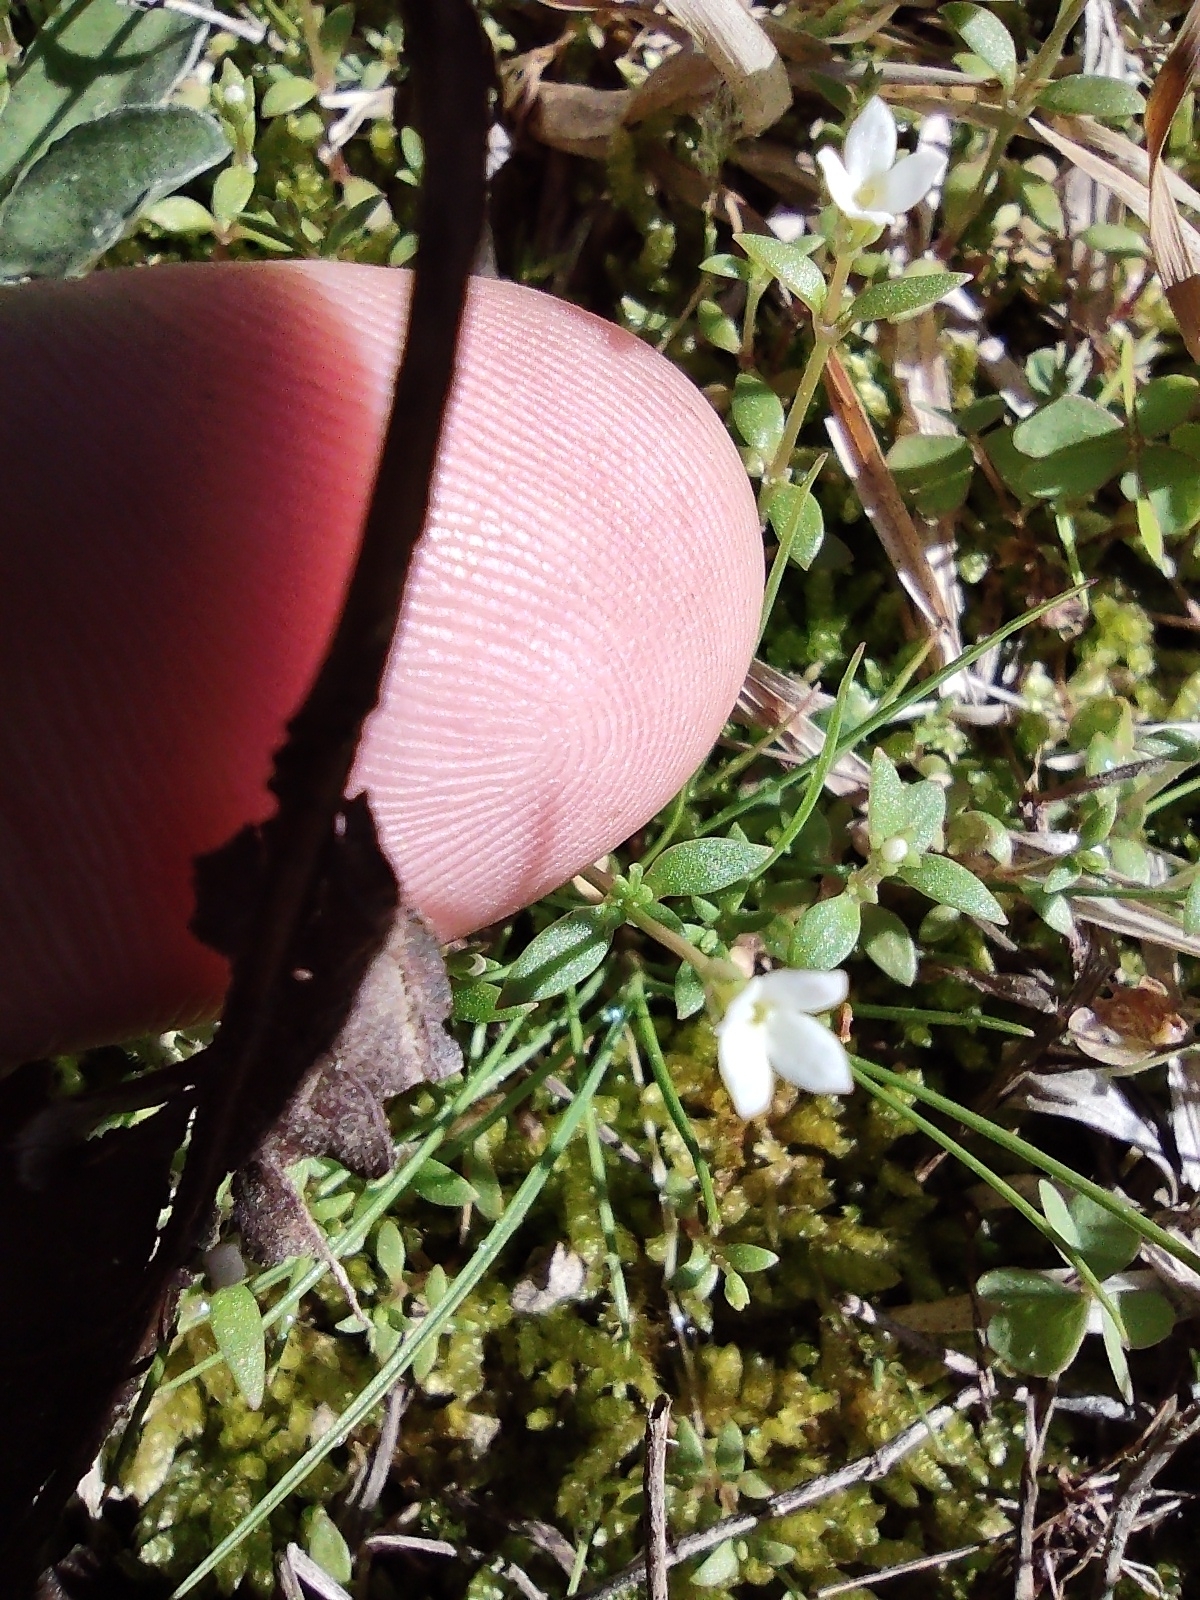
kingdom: Plantae
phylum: Tracheophyta
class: Magnoliopsida
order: Gentianales
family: Rubiaceae
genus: Houstonia
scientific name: Houstonia micrantha
